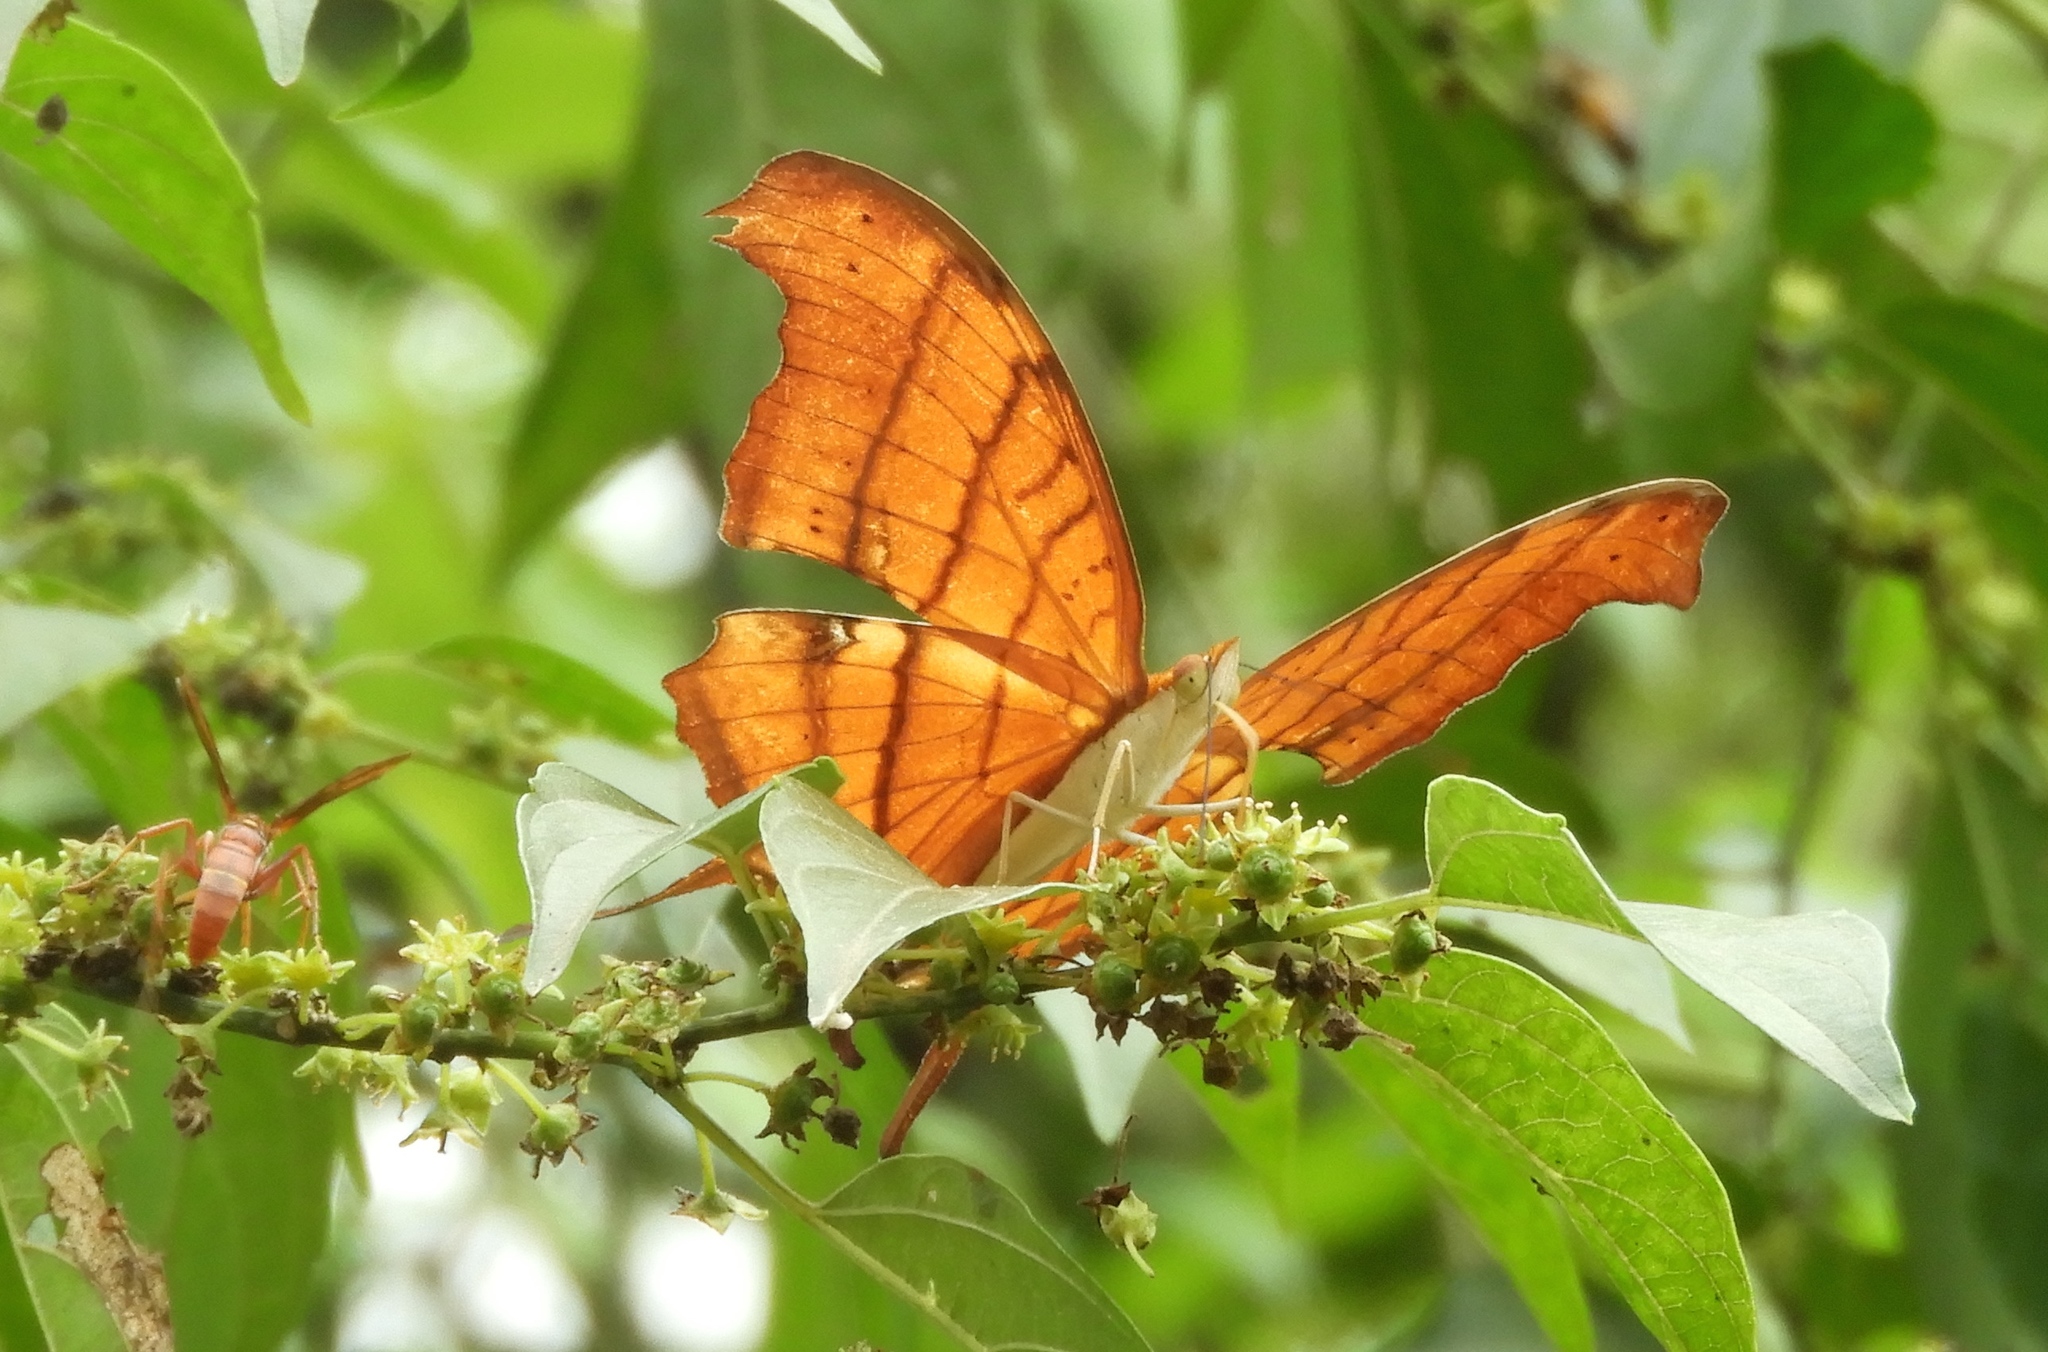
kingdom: Animalia
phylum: Arthropoda
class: Insecta
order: Lepidoptera
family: Nymphalidae
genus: Marpesia
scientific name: Marpesia petreus
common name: Red dagger wing
